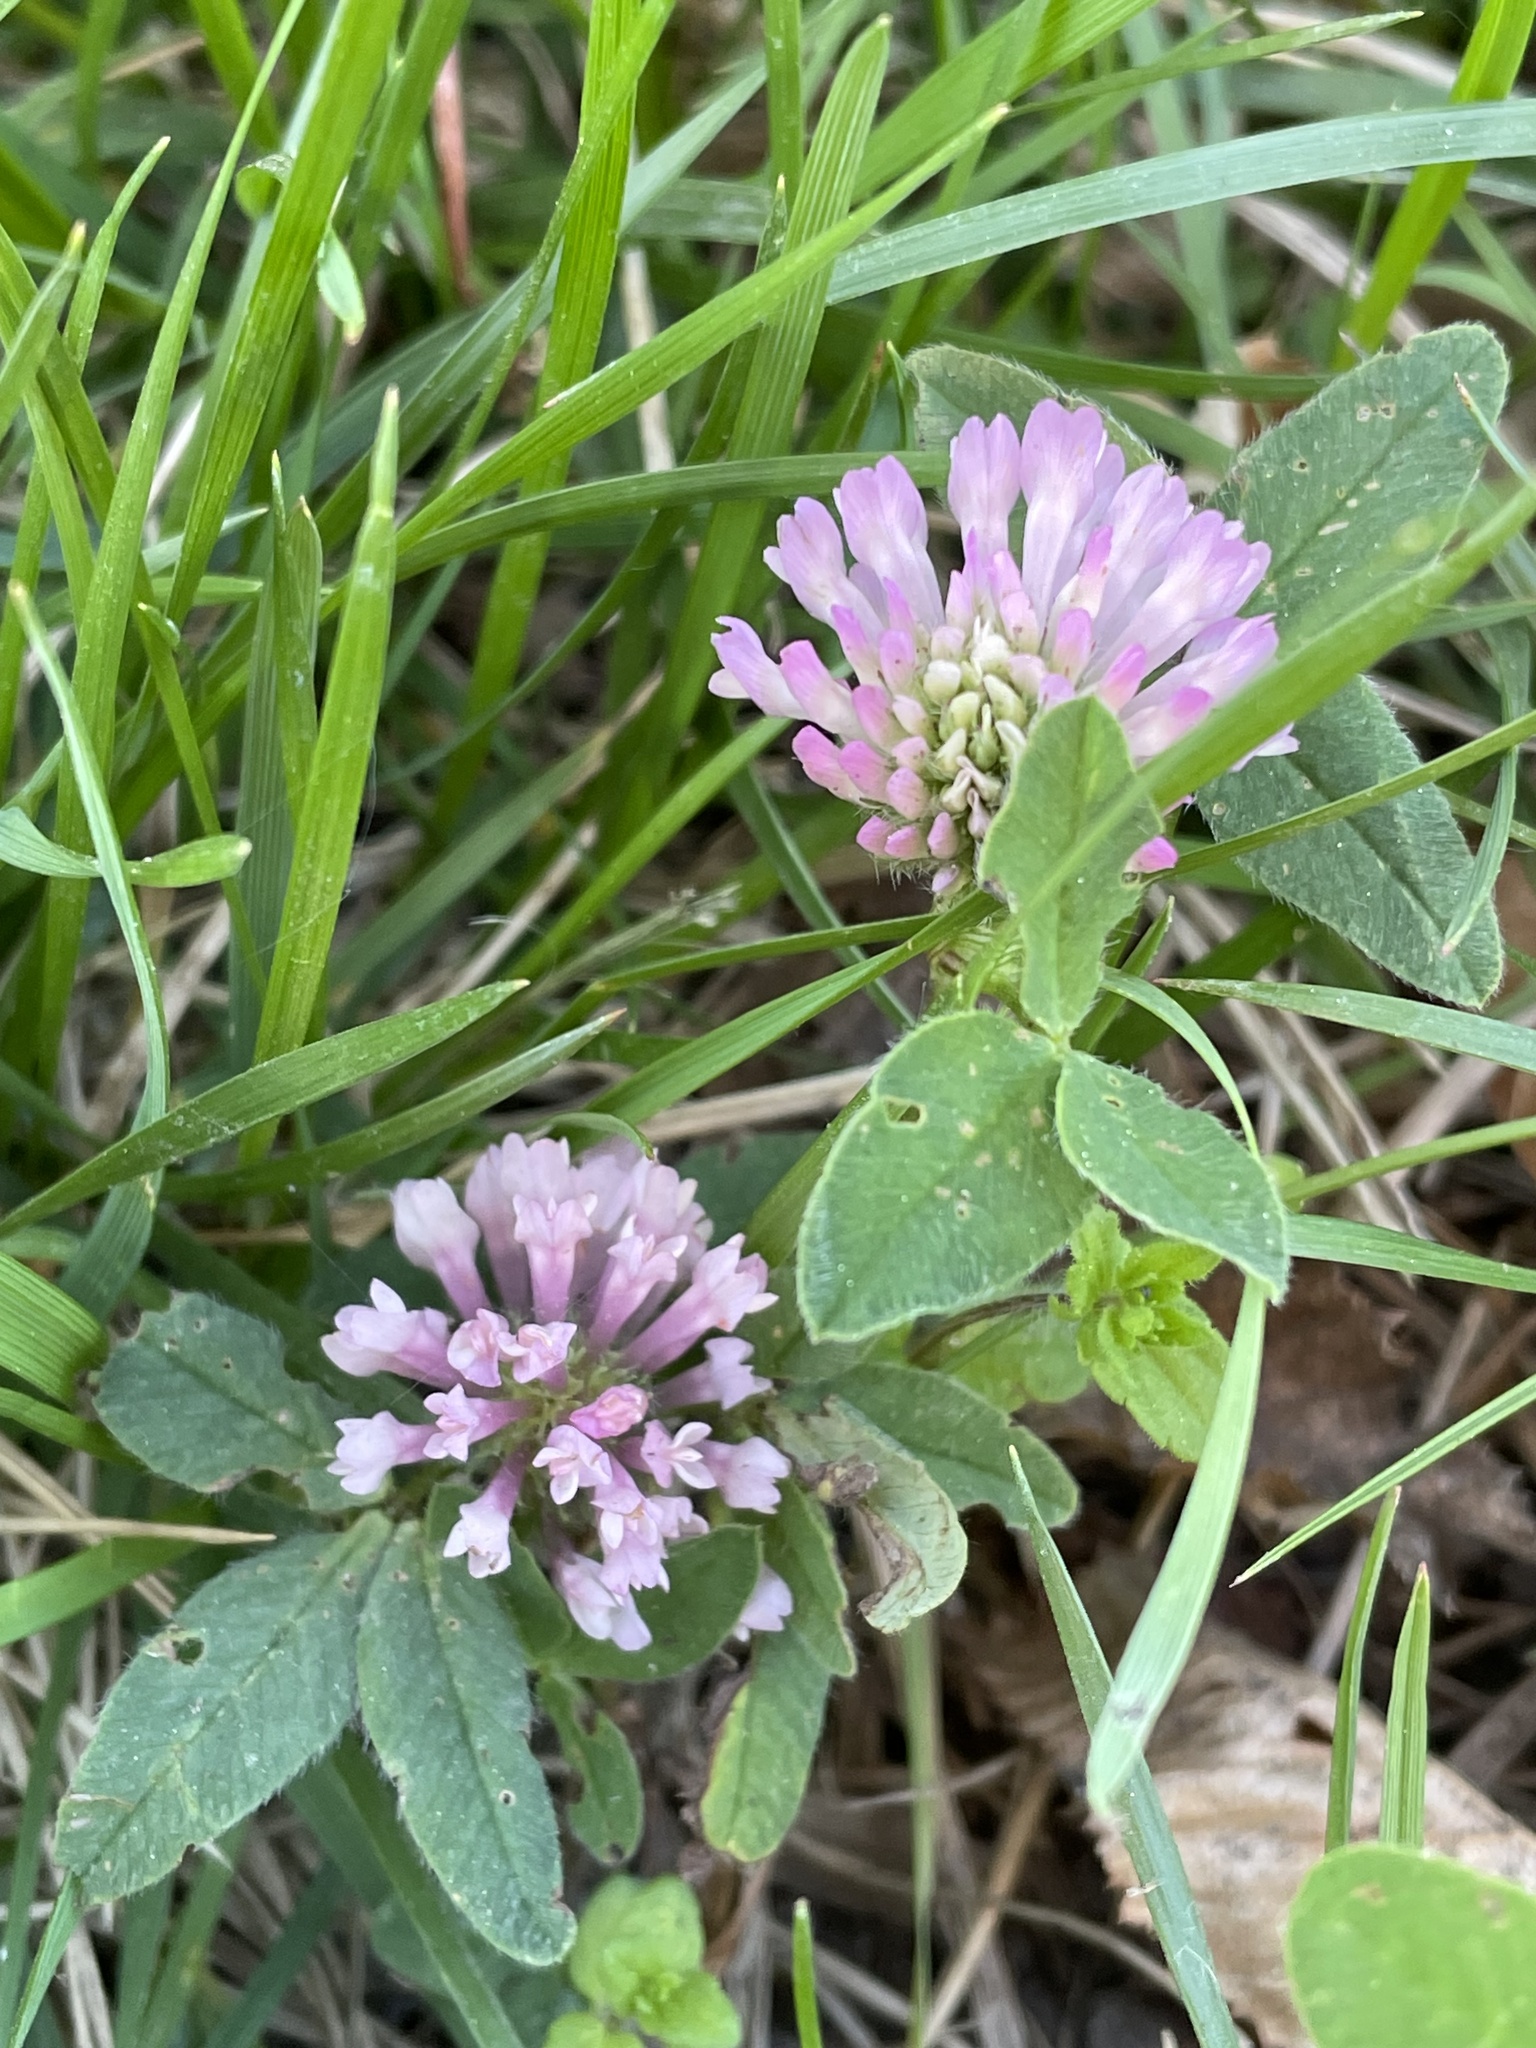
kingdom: Plantae
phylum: Tracheophyta
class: Magnoliopsida
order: Fabales
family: Fabaceae
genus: Trifolium
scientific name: Trifolium pratense
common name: Red clover
